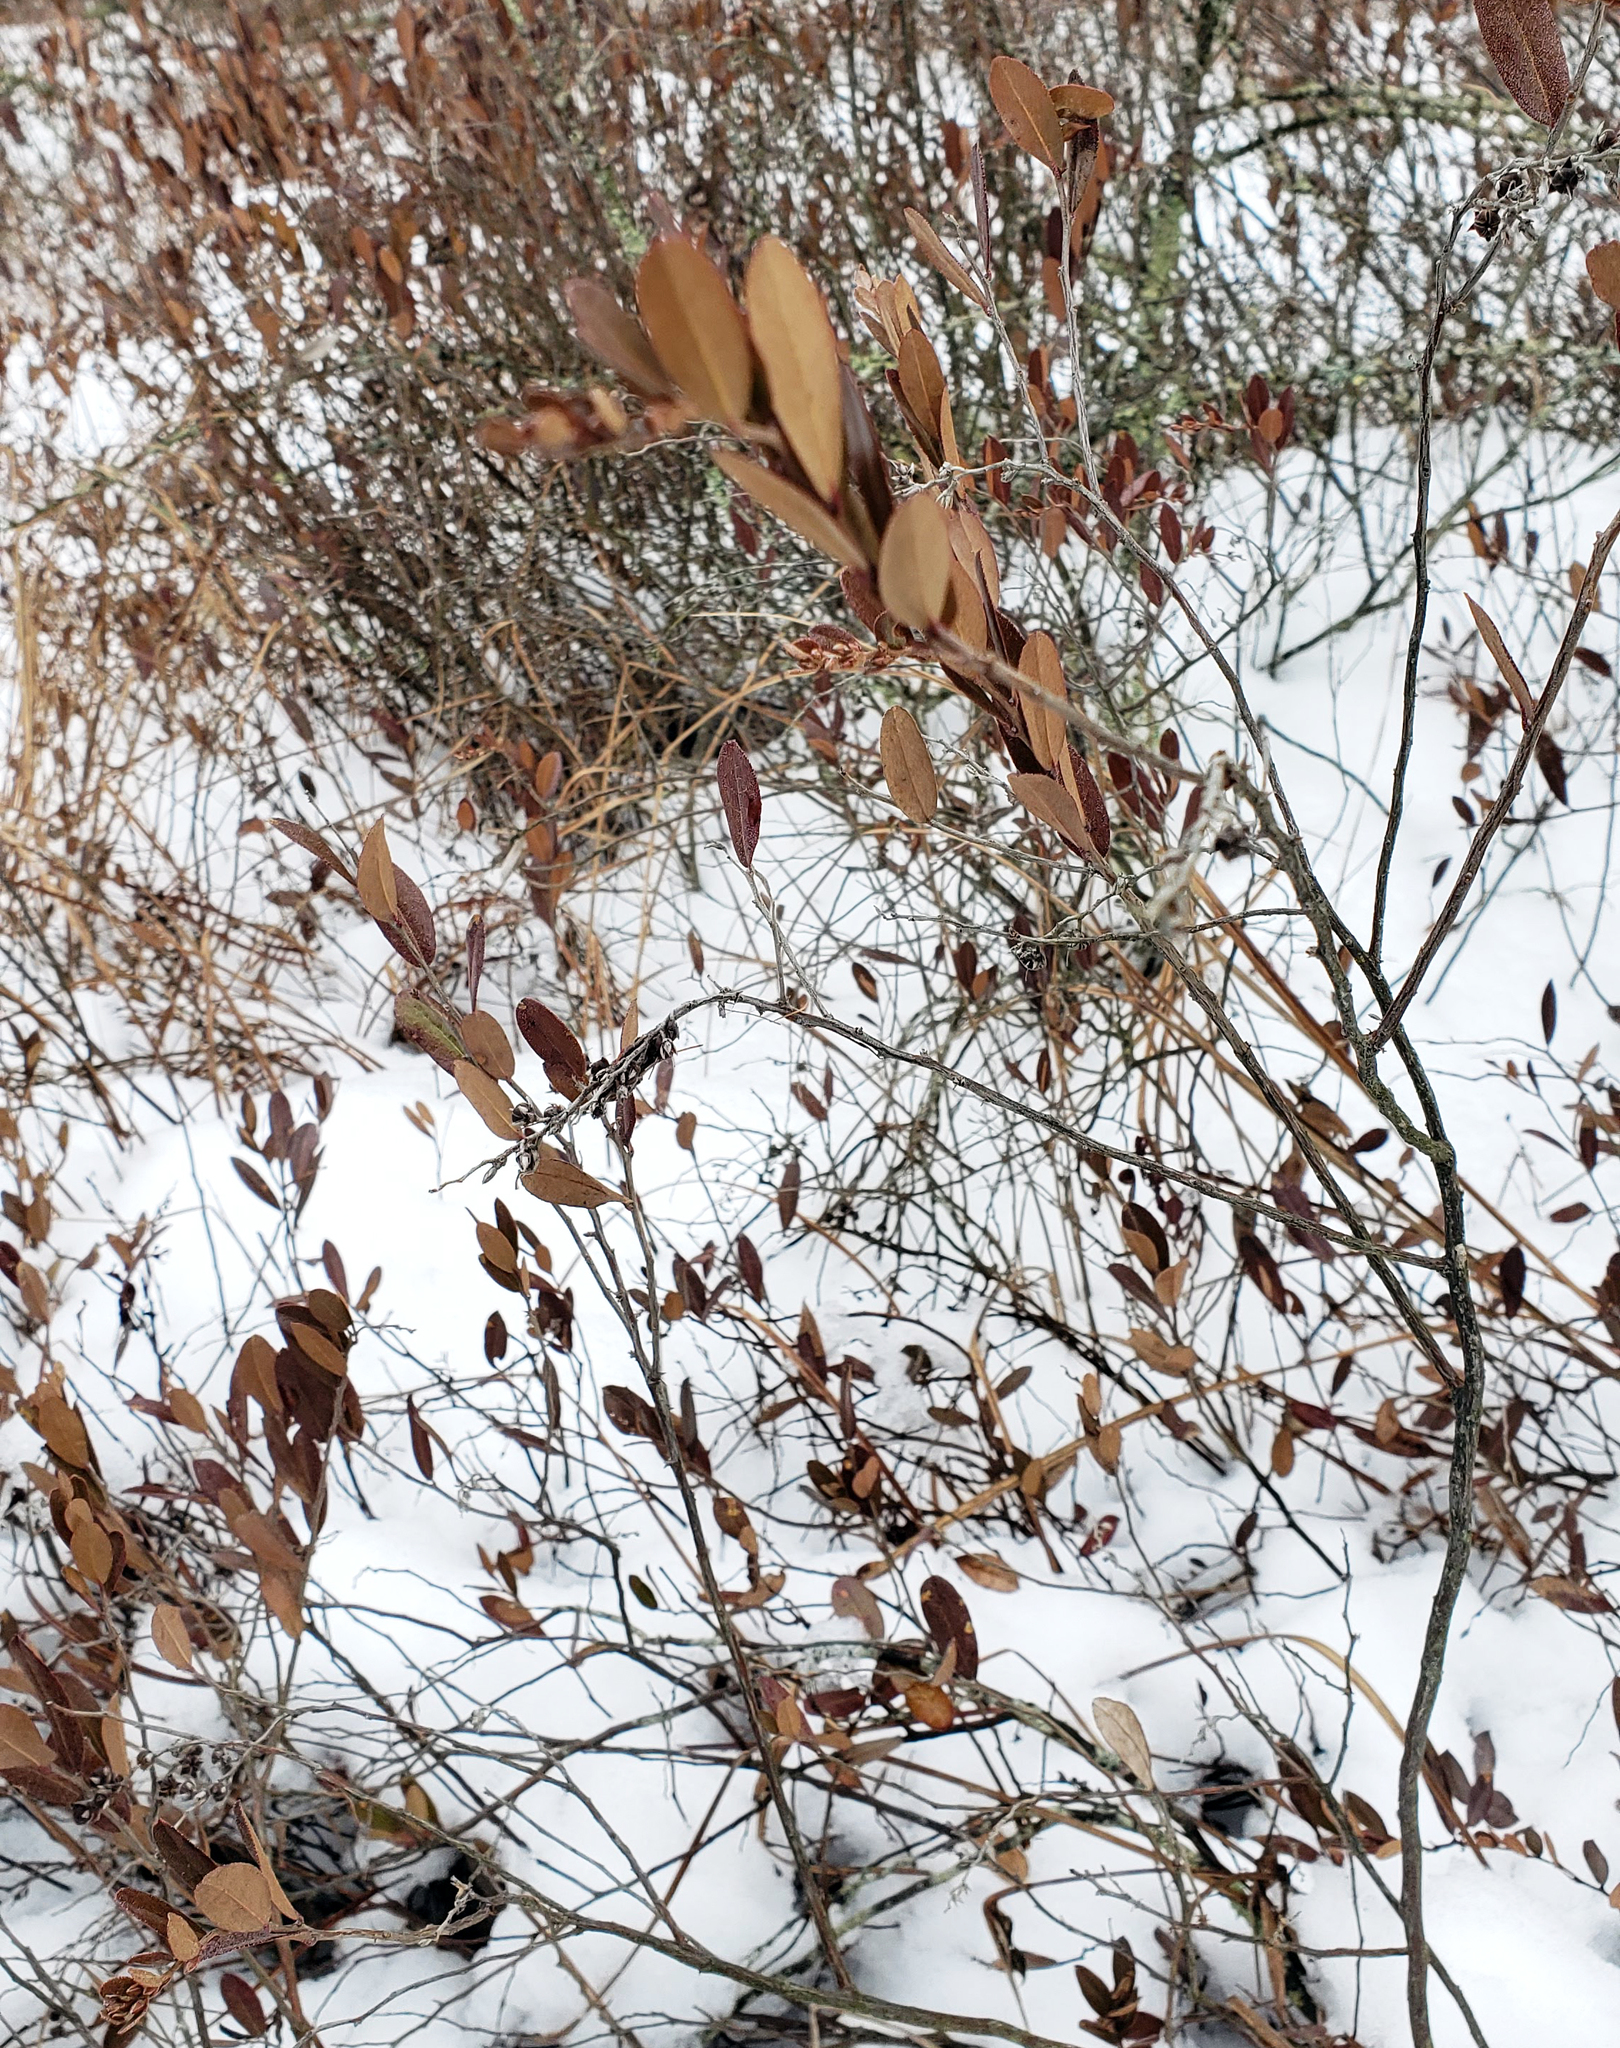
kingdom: Plantae
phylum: Tracheophyta
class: Magnoliopsida
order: Ericales
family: Ericaceae
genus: Chamaedaphne
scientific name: Chamaedaphne calyculata
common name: Leatherleaf
